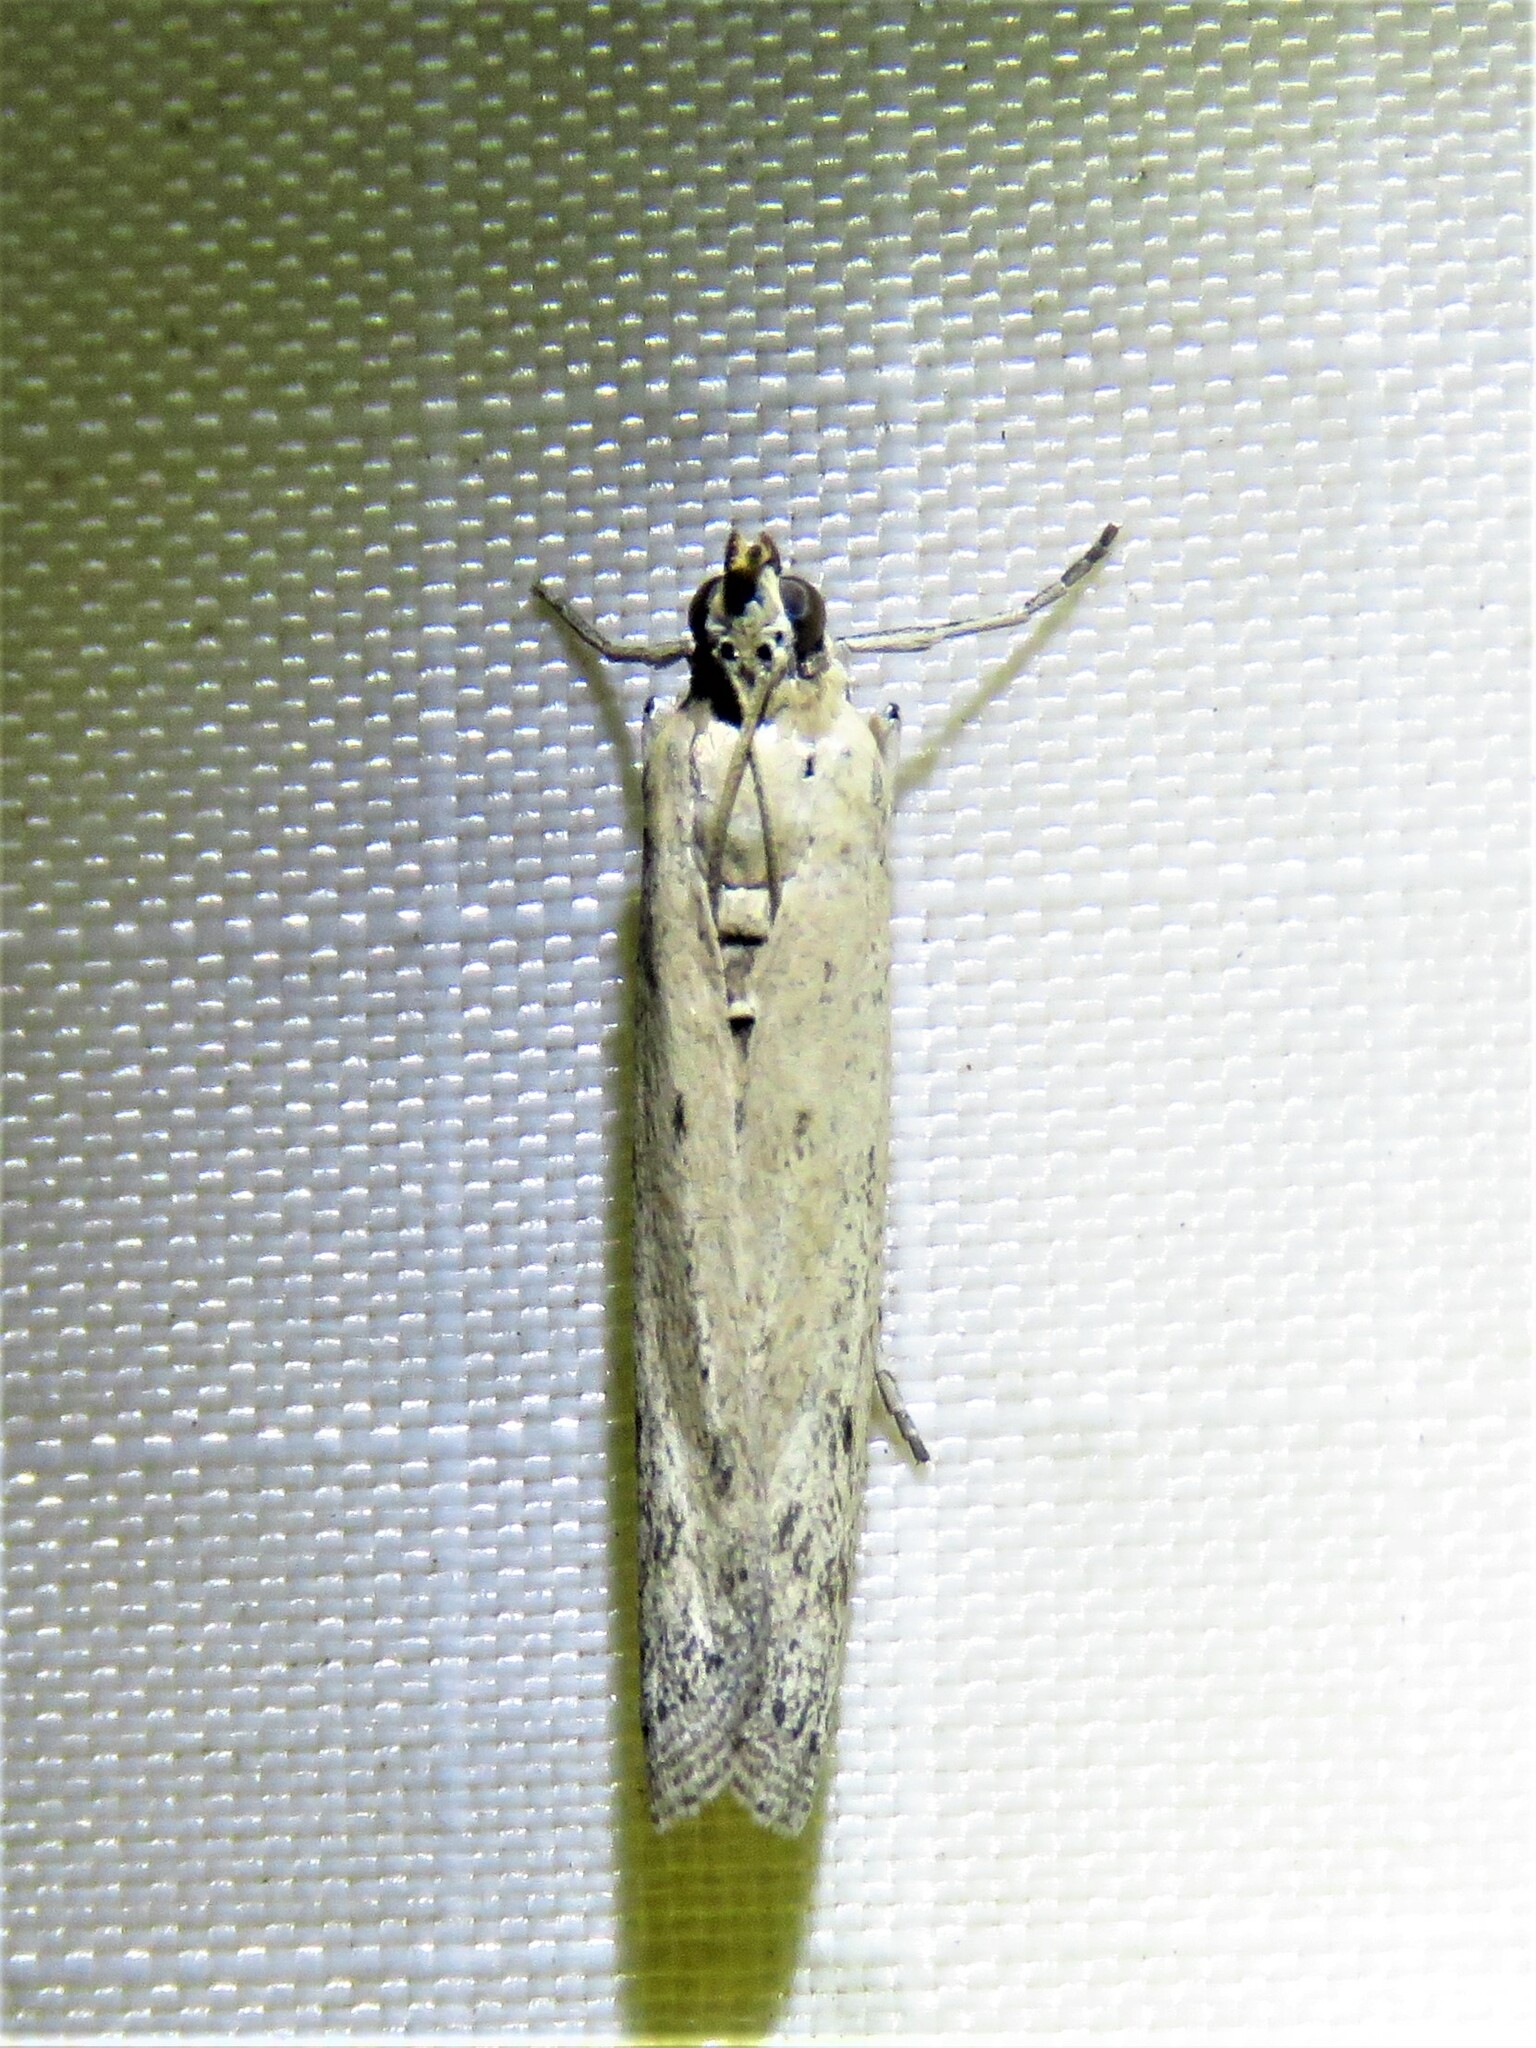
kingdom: Animalia
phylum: Arthropoda
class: Insecta
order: Lepidoptera
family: Pyralidae
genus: Homoeosoma
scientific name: Homoeosoma electella
